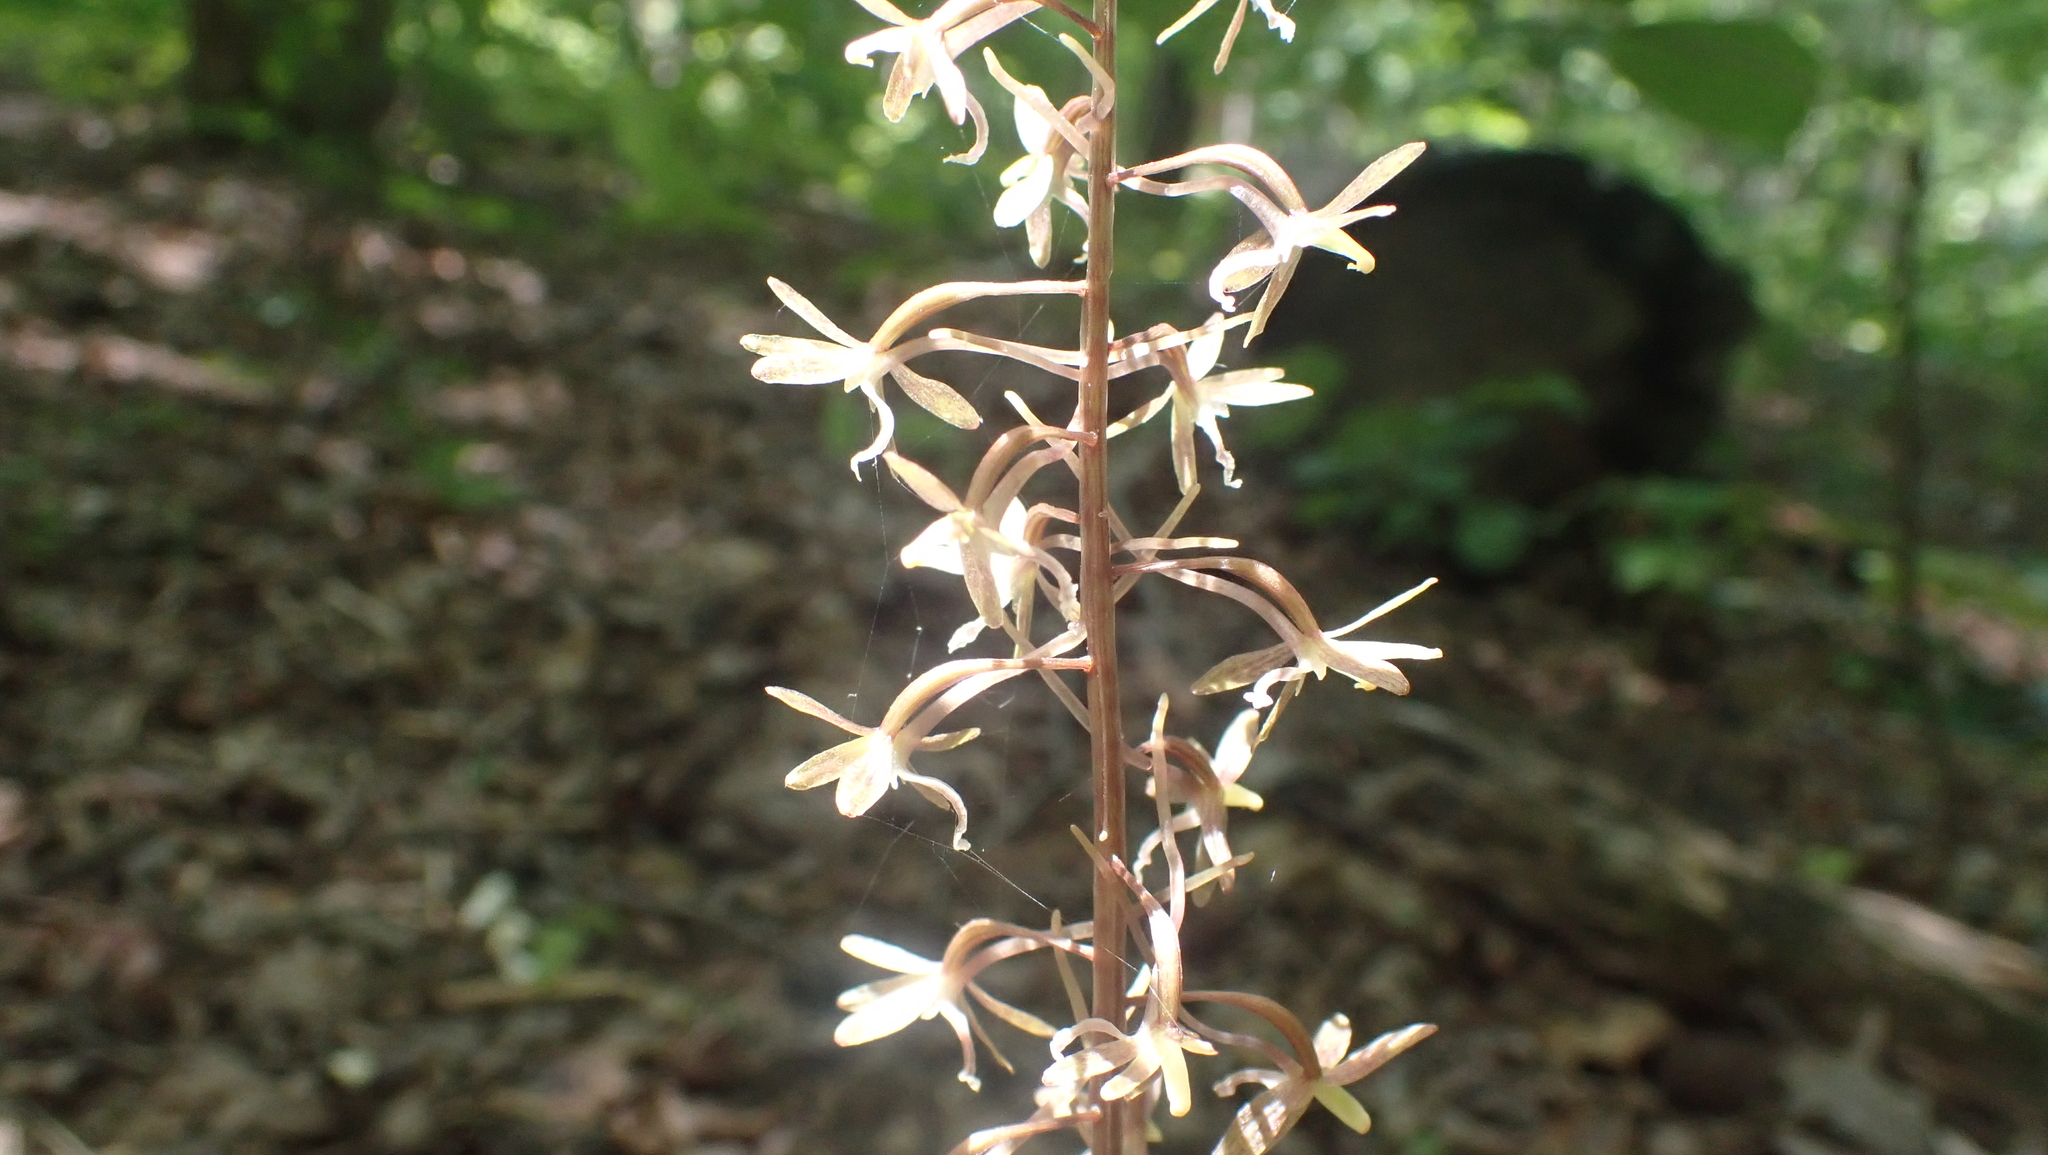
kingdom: Plantae
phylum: Tracheophyta
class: Liliopsida
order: Asparagales
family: Orchidaceae
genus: Tipularia
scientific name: Tipularia discolor
